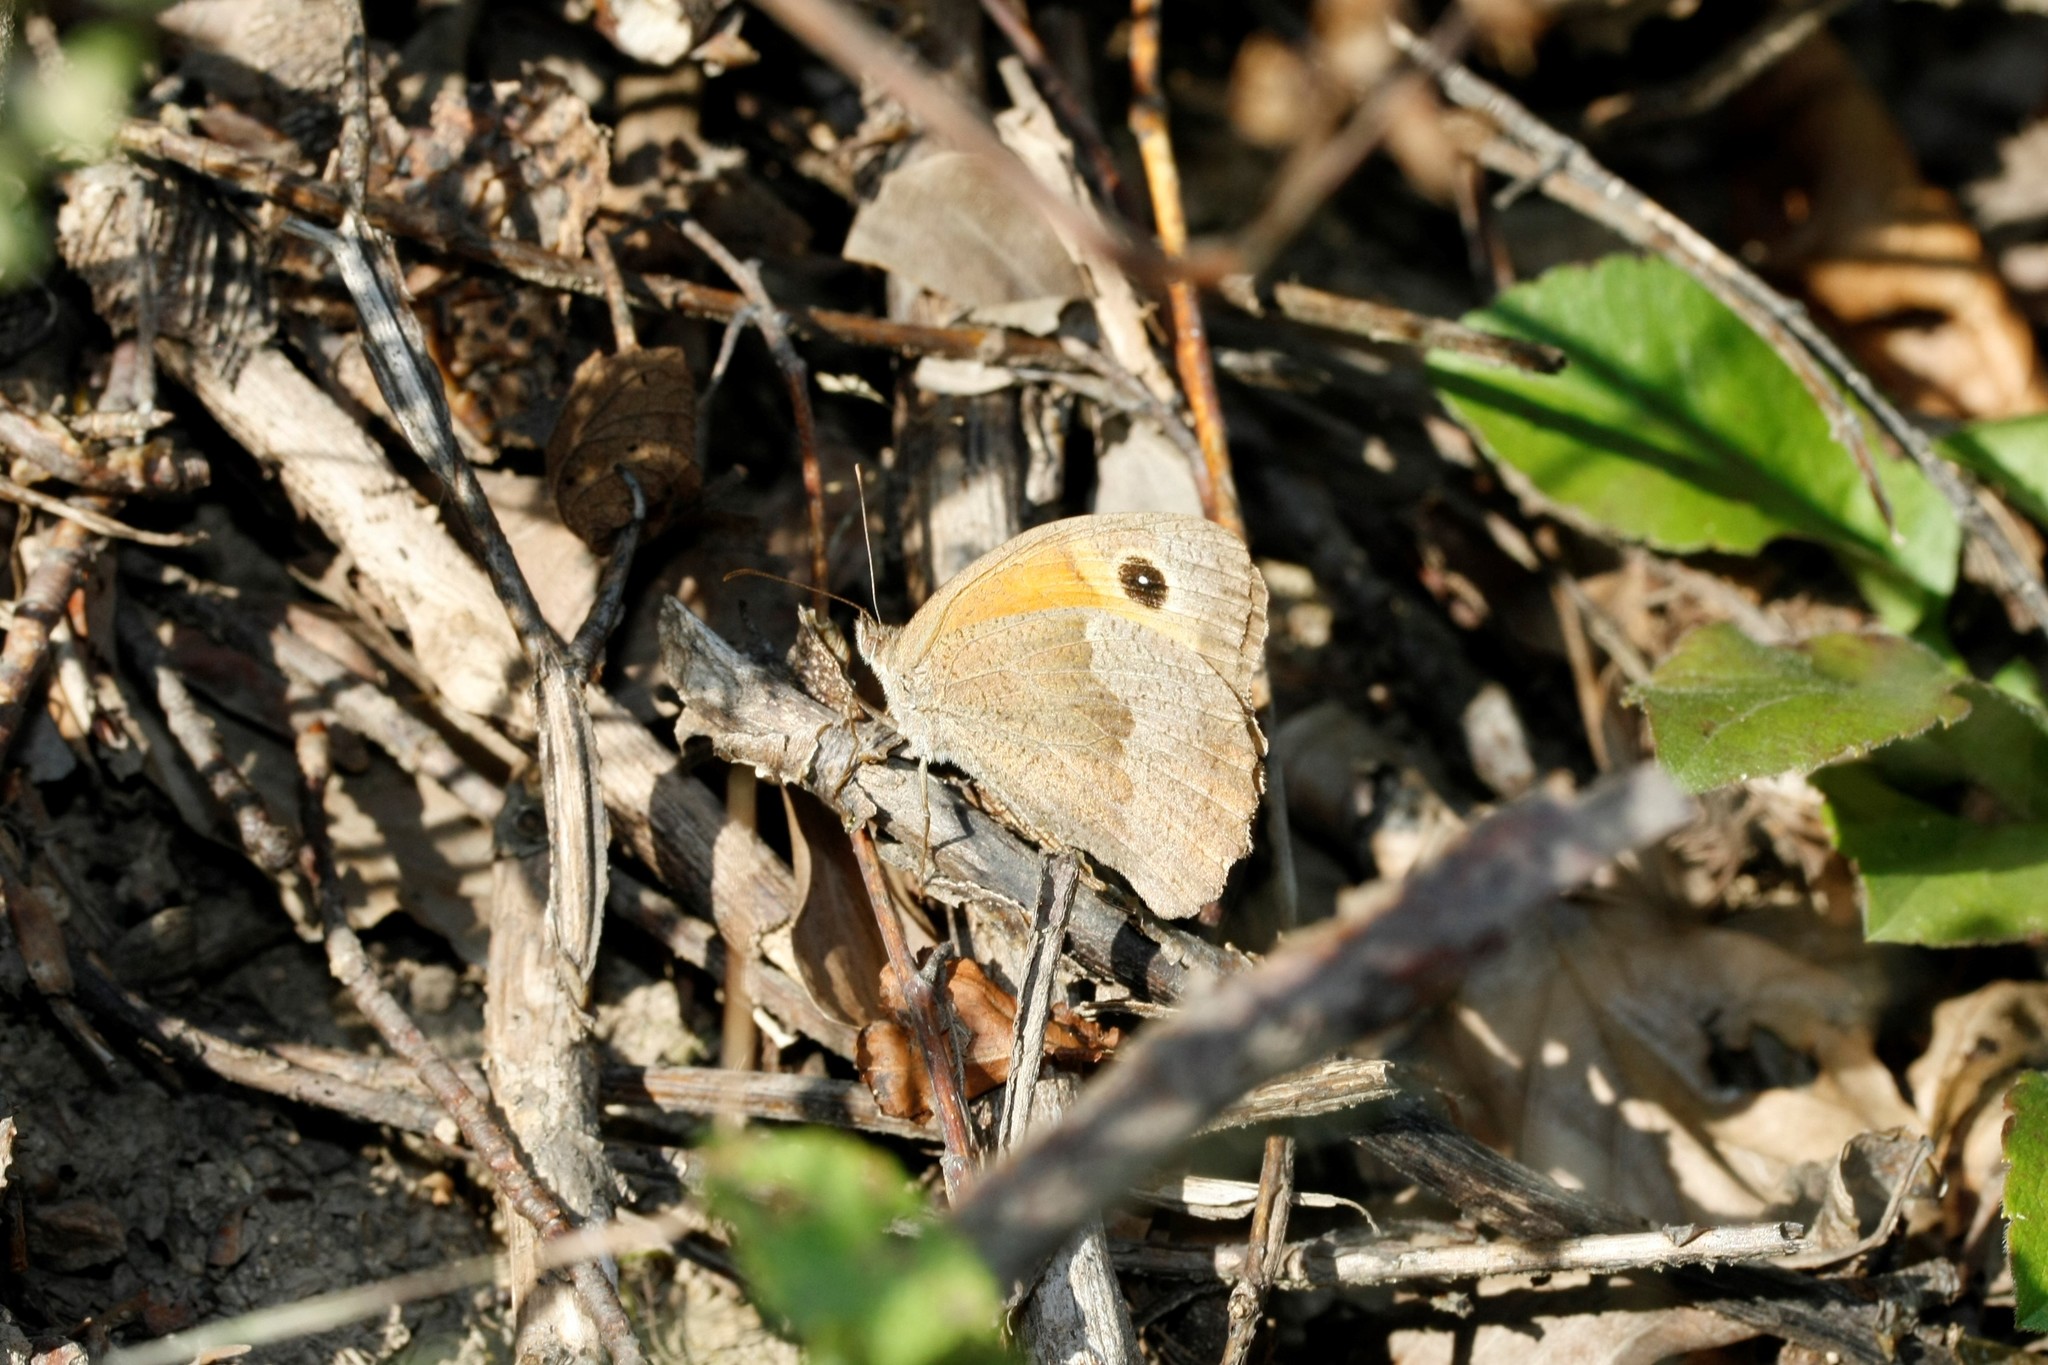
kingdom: Animalia
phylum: Arthropoda
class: Insecta
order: Lepidoptera
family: Nymphalidae
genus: Maniola
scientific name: Maniola jurtina
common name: Meadow brown
